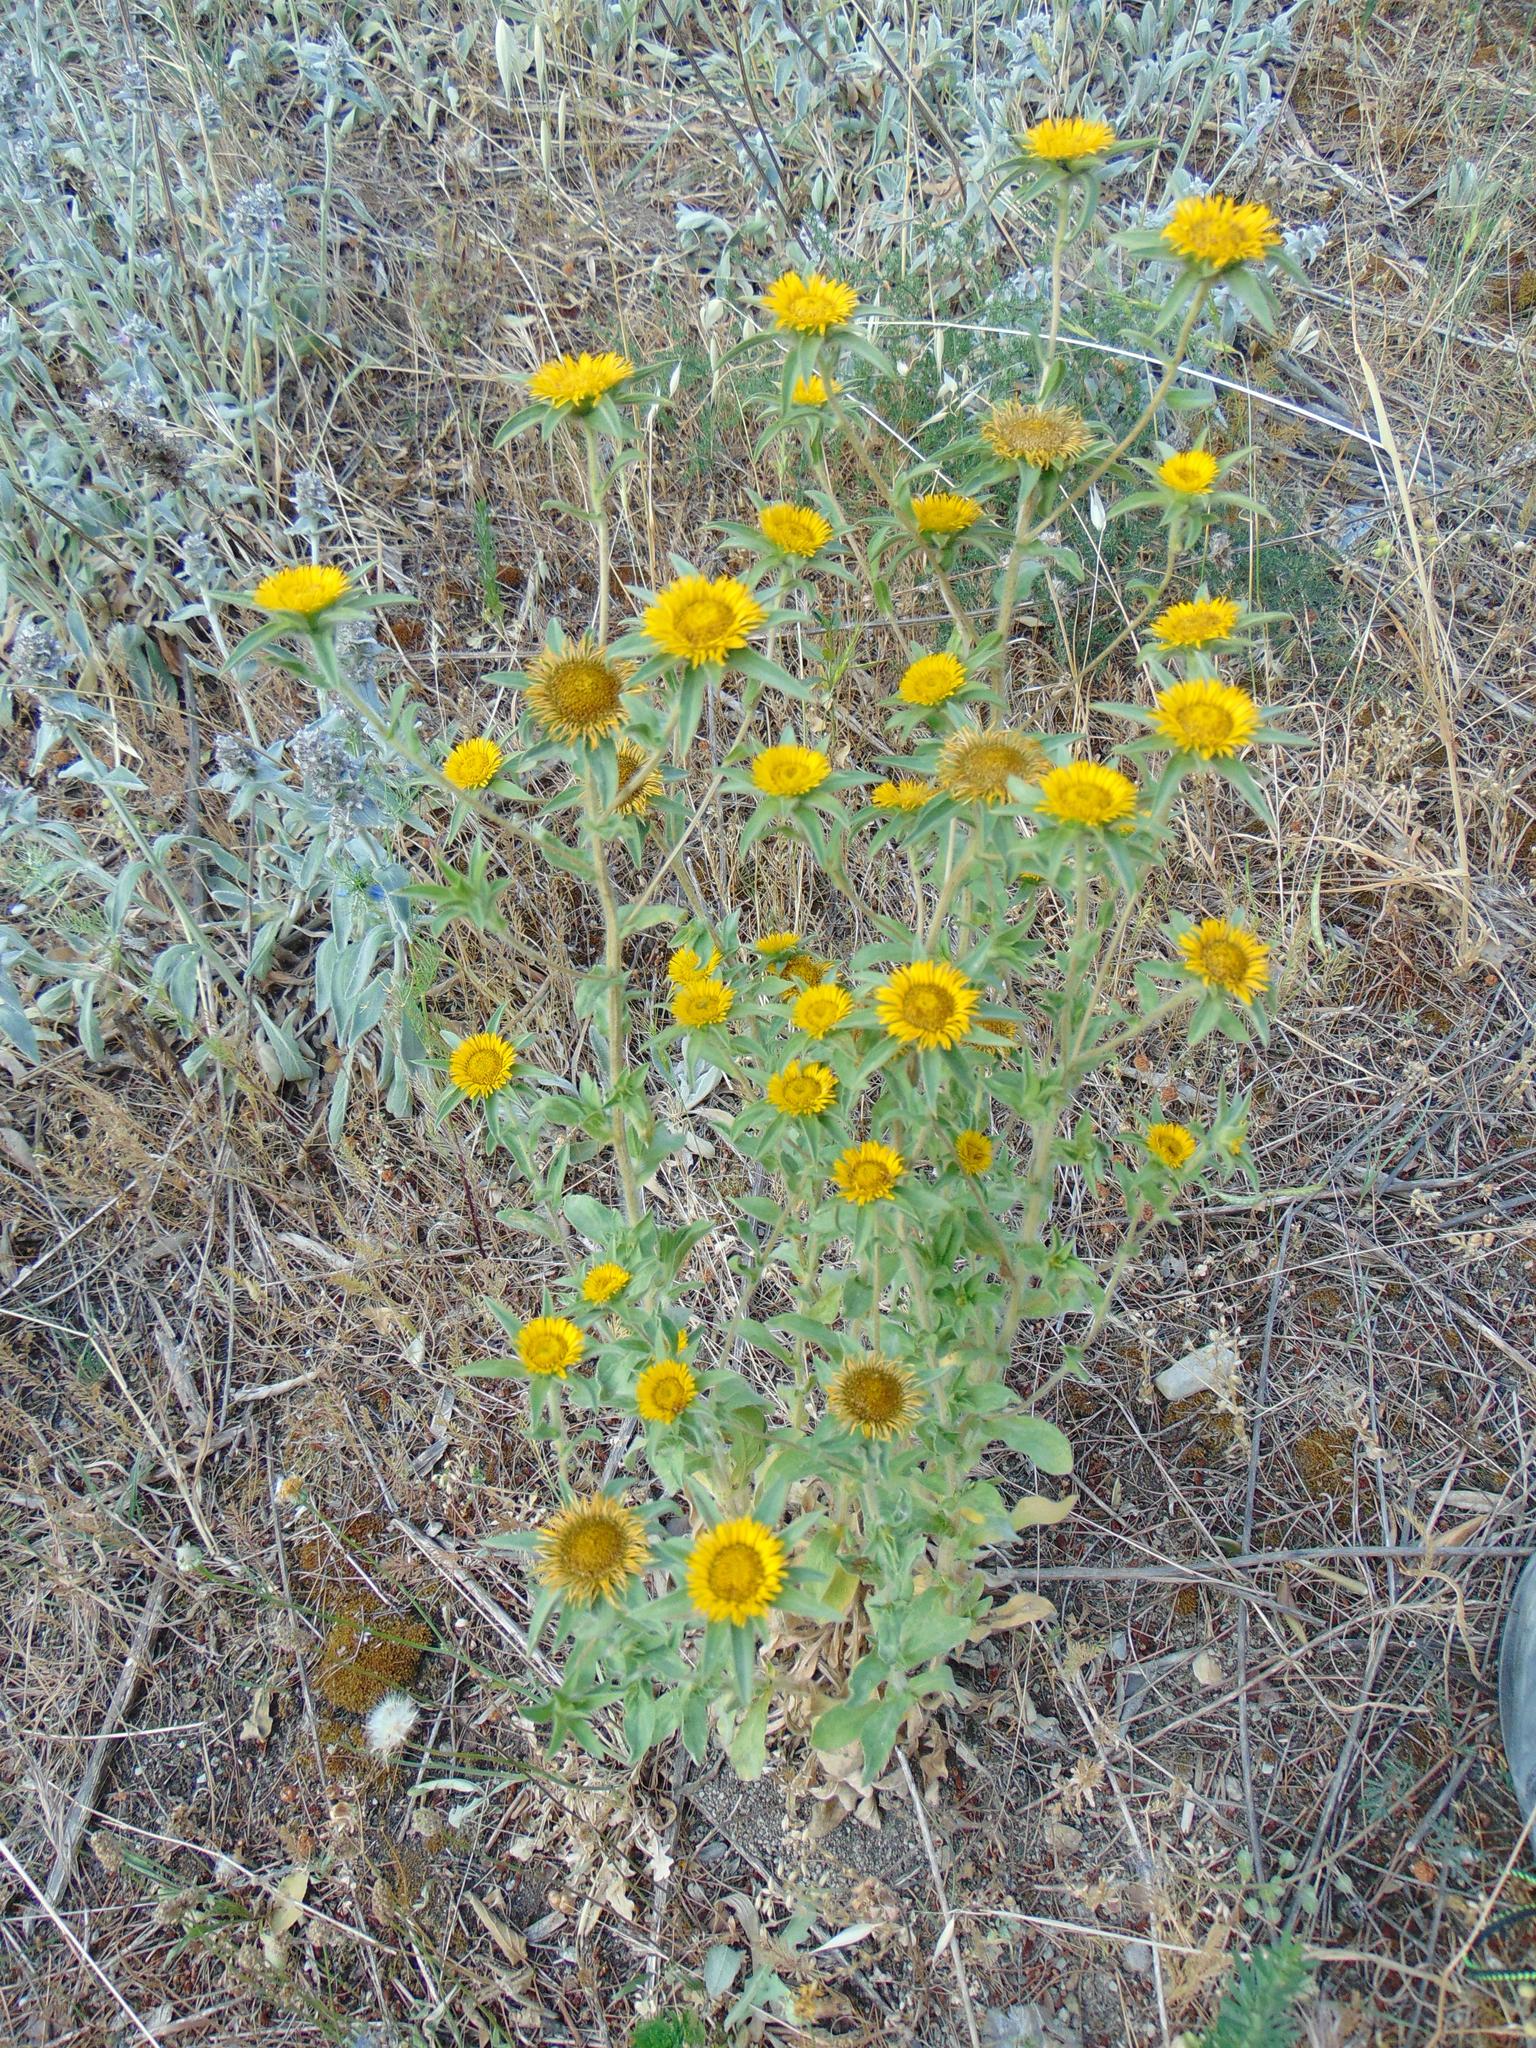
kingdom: Plantae
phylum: Tracheophyta
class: Magnoliopsida
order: Asterales
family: Asteraceae
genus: Pallenis
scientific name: Pallenis spinosa
